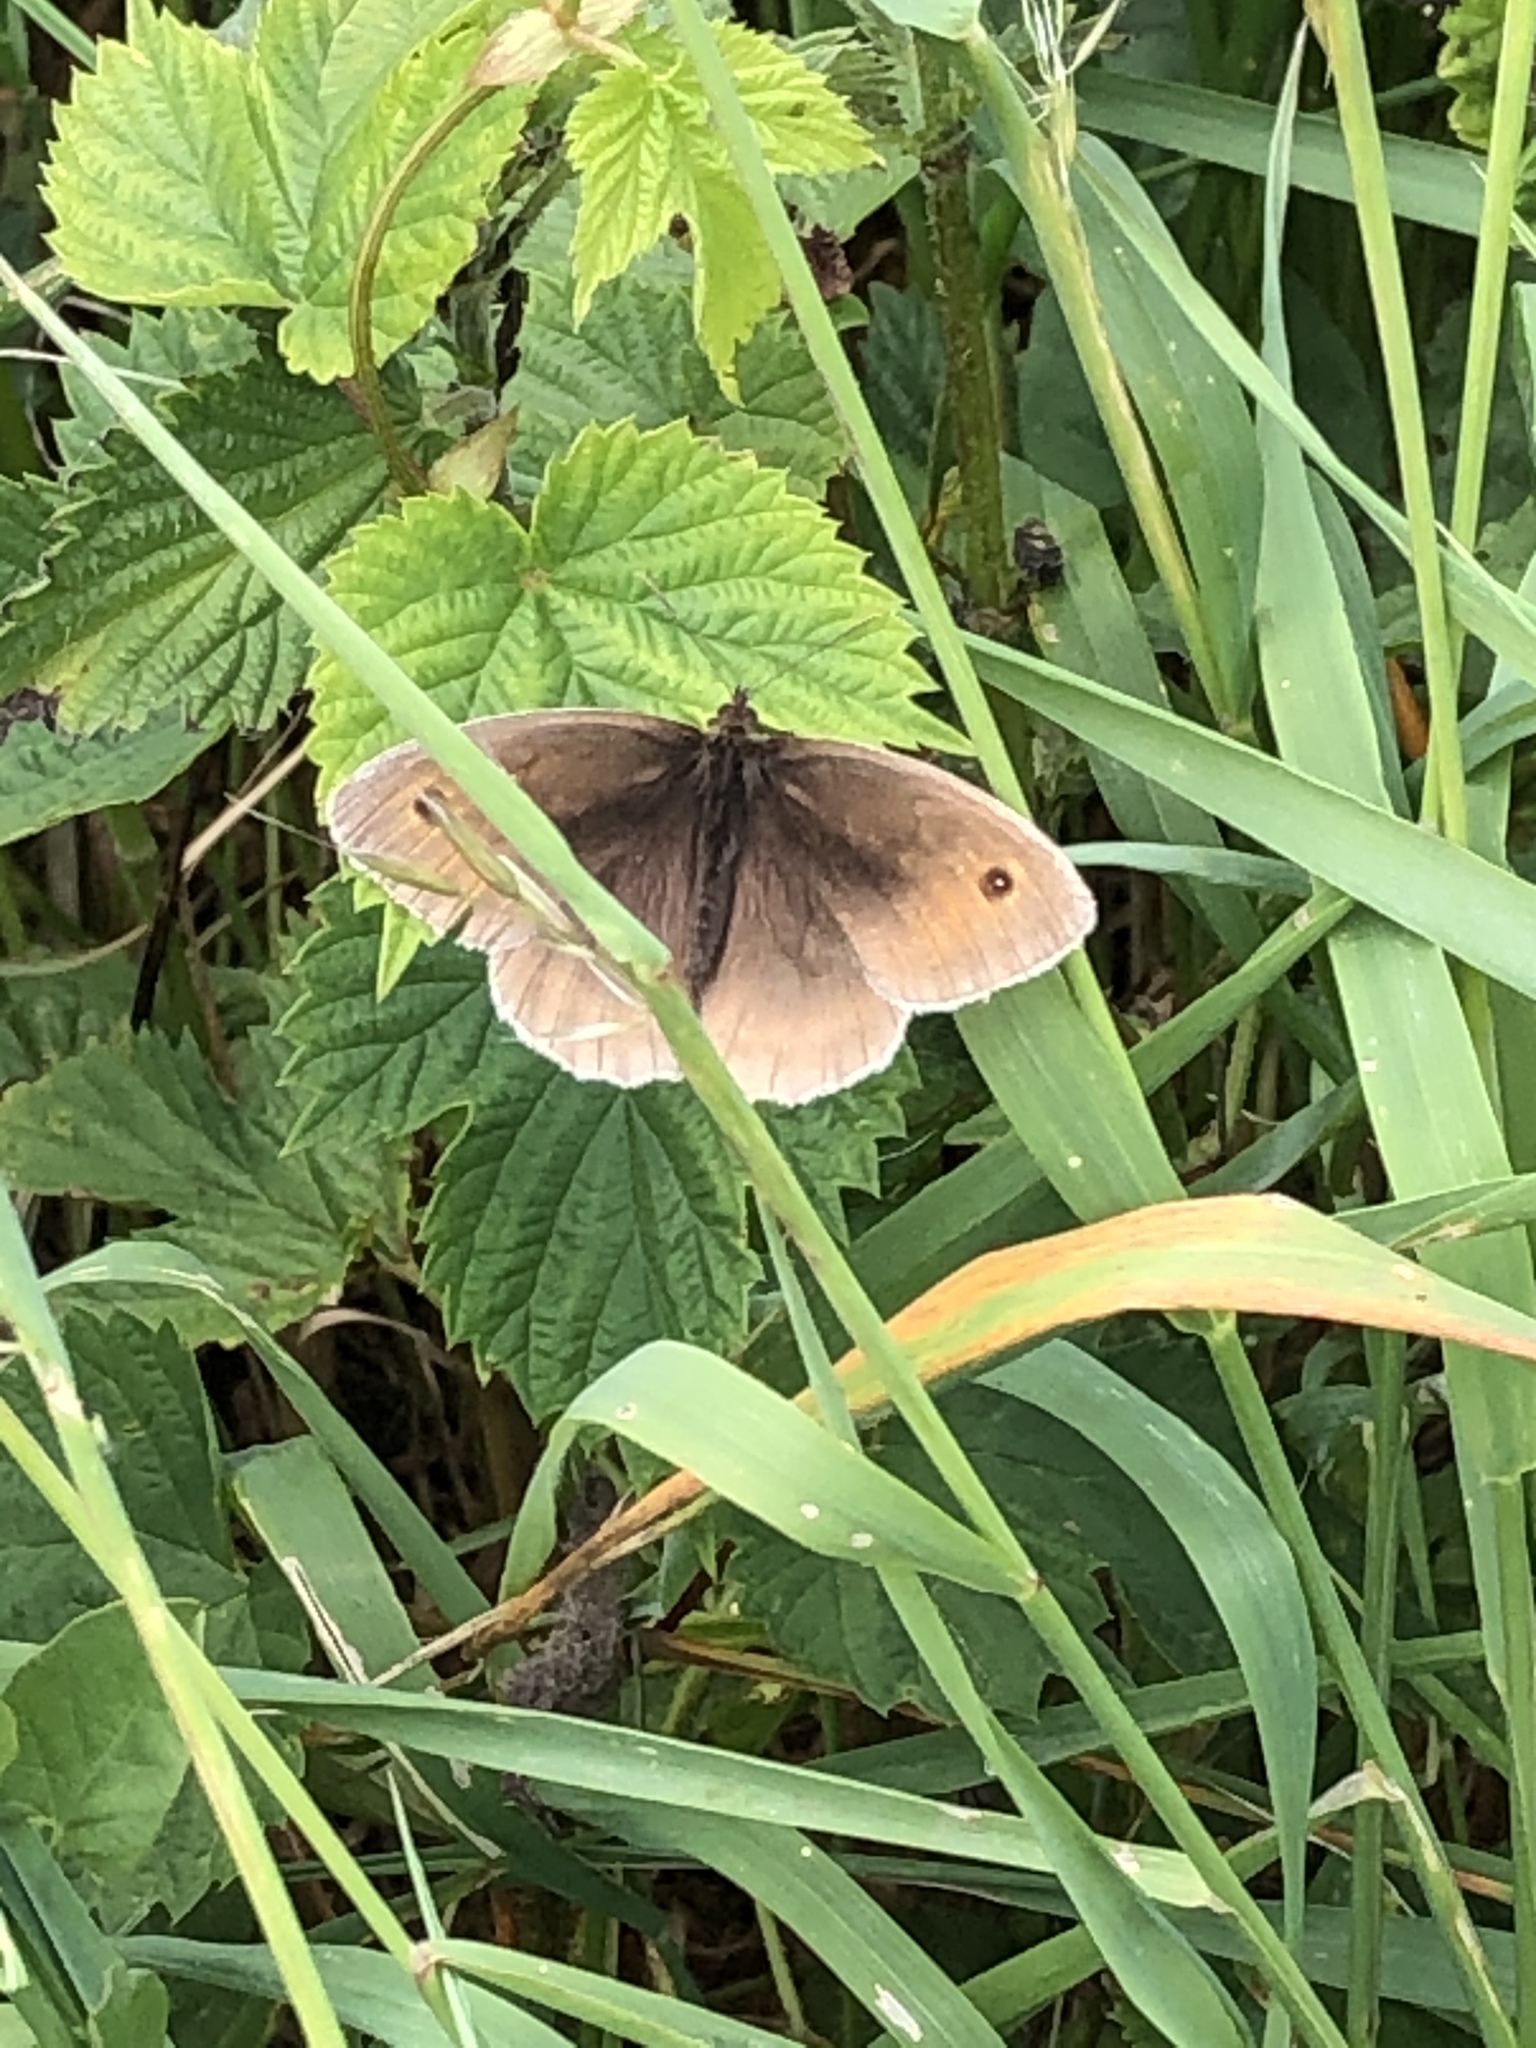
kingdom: Animalia
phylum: Arthropoda
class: Insecta
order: Lepidoptera
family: Nymphalidae
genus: Maniola
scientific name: Maniola jurtina
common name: Meadow brown
